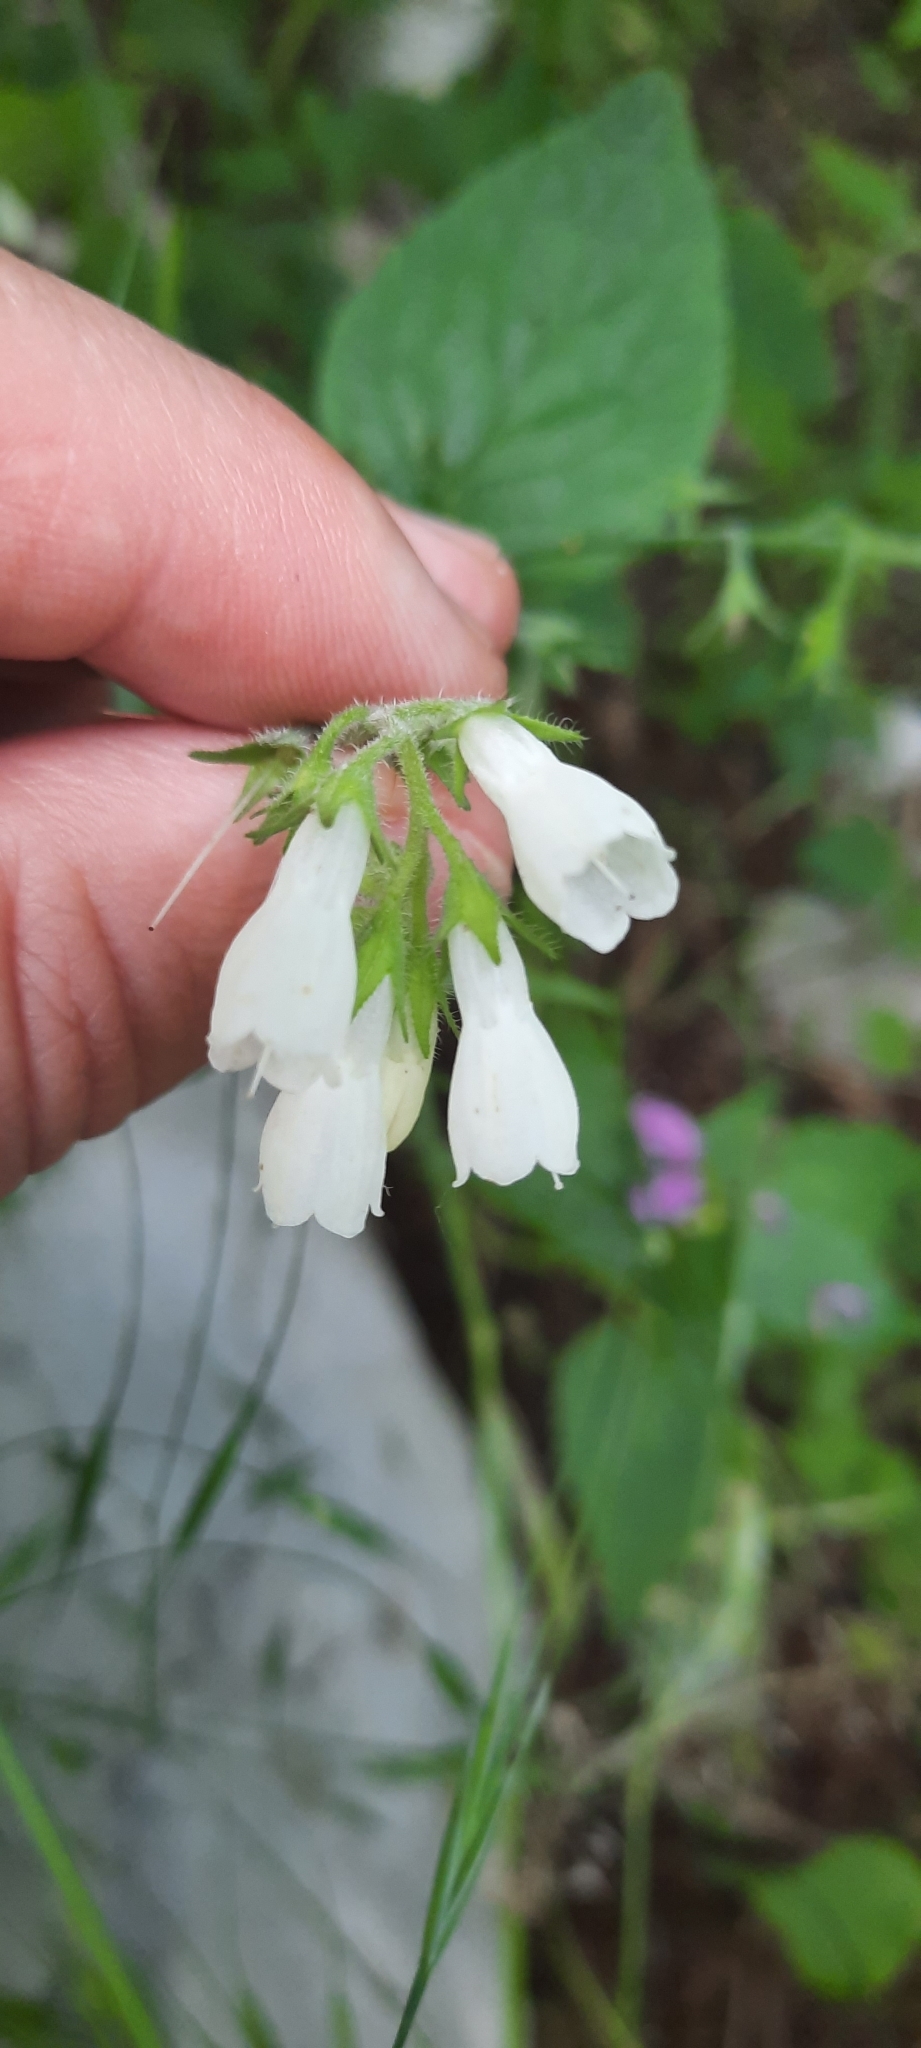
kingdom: Plantae
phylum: Tracheophyta
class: Magnoliopsida
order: Boraginales
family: Boraginaceae
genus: Symphytum
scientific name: Symphytum tauricum
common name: Crimean comfrey
